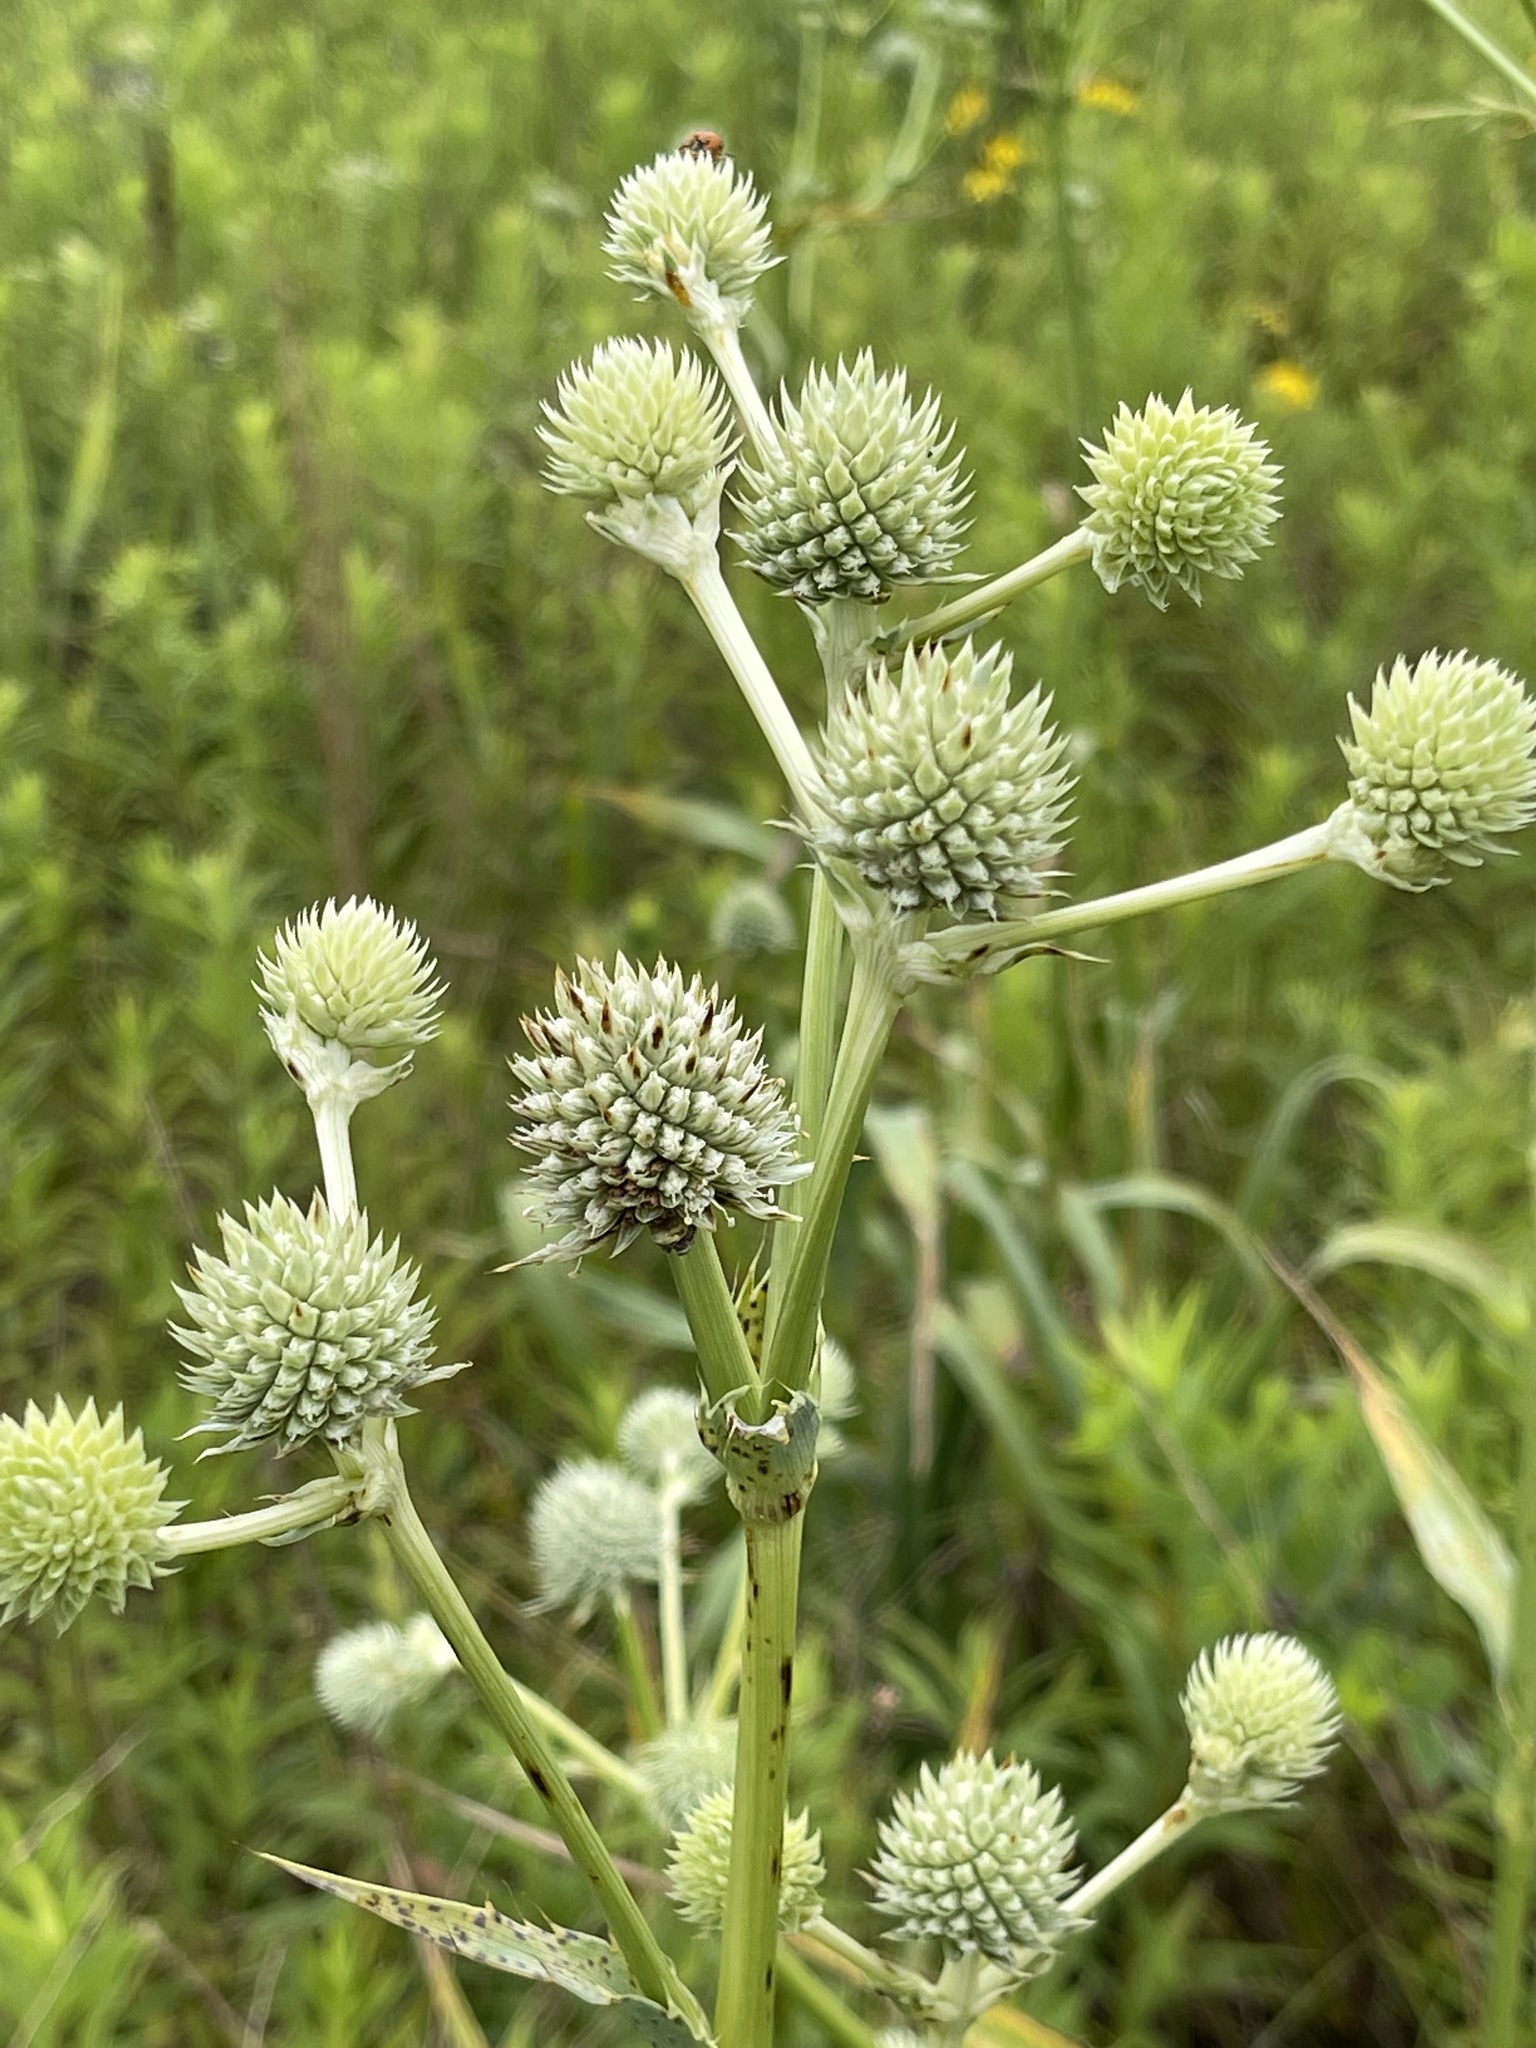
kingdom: Plantae
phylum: Tracheophyta
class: Magnoliopsida
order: Apiales
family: Apiaceae
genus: Eryngium
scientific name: Eryngium yuccifolium
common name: Button eryngo
